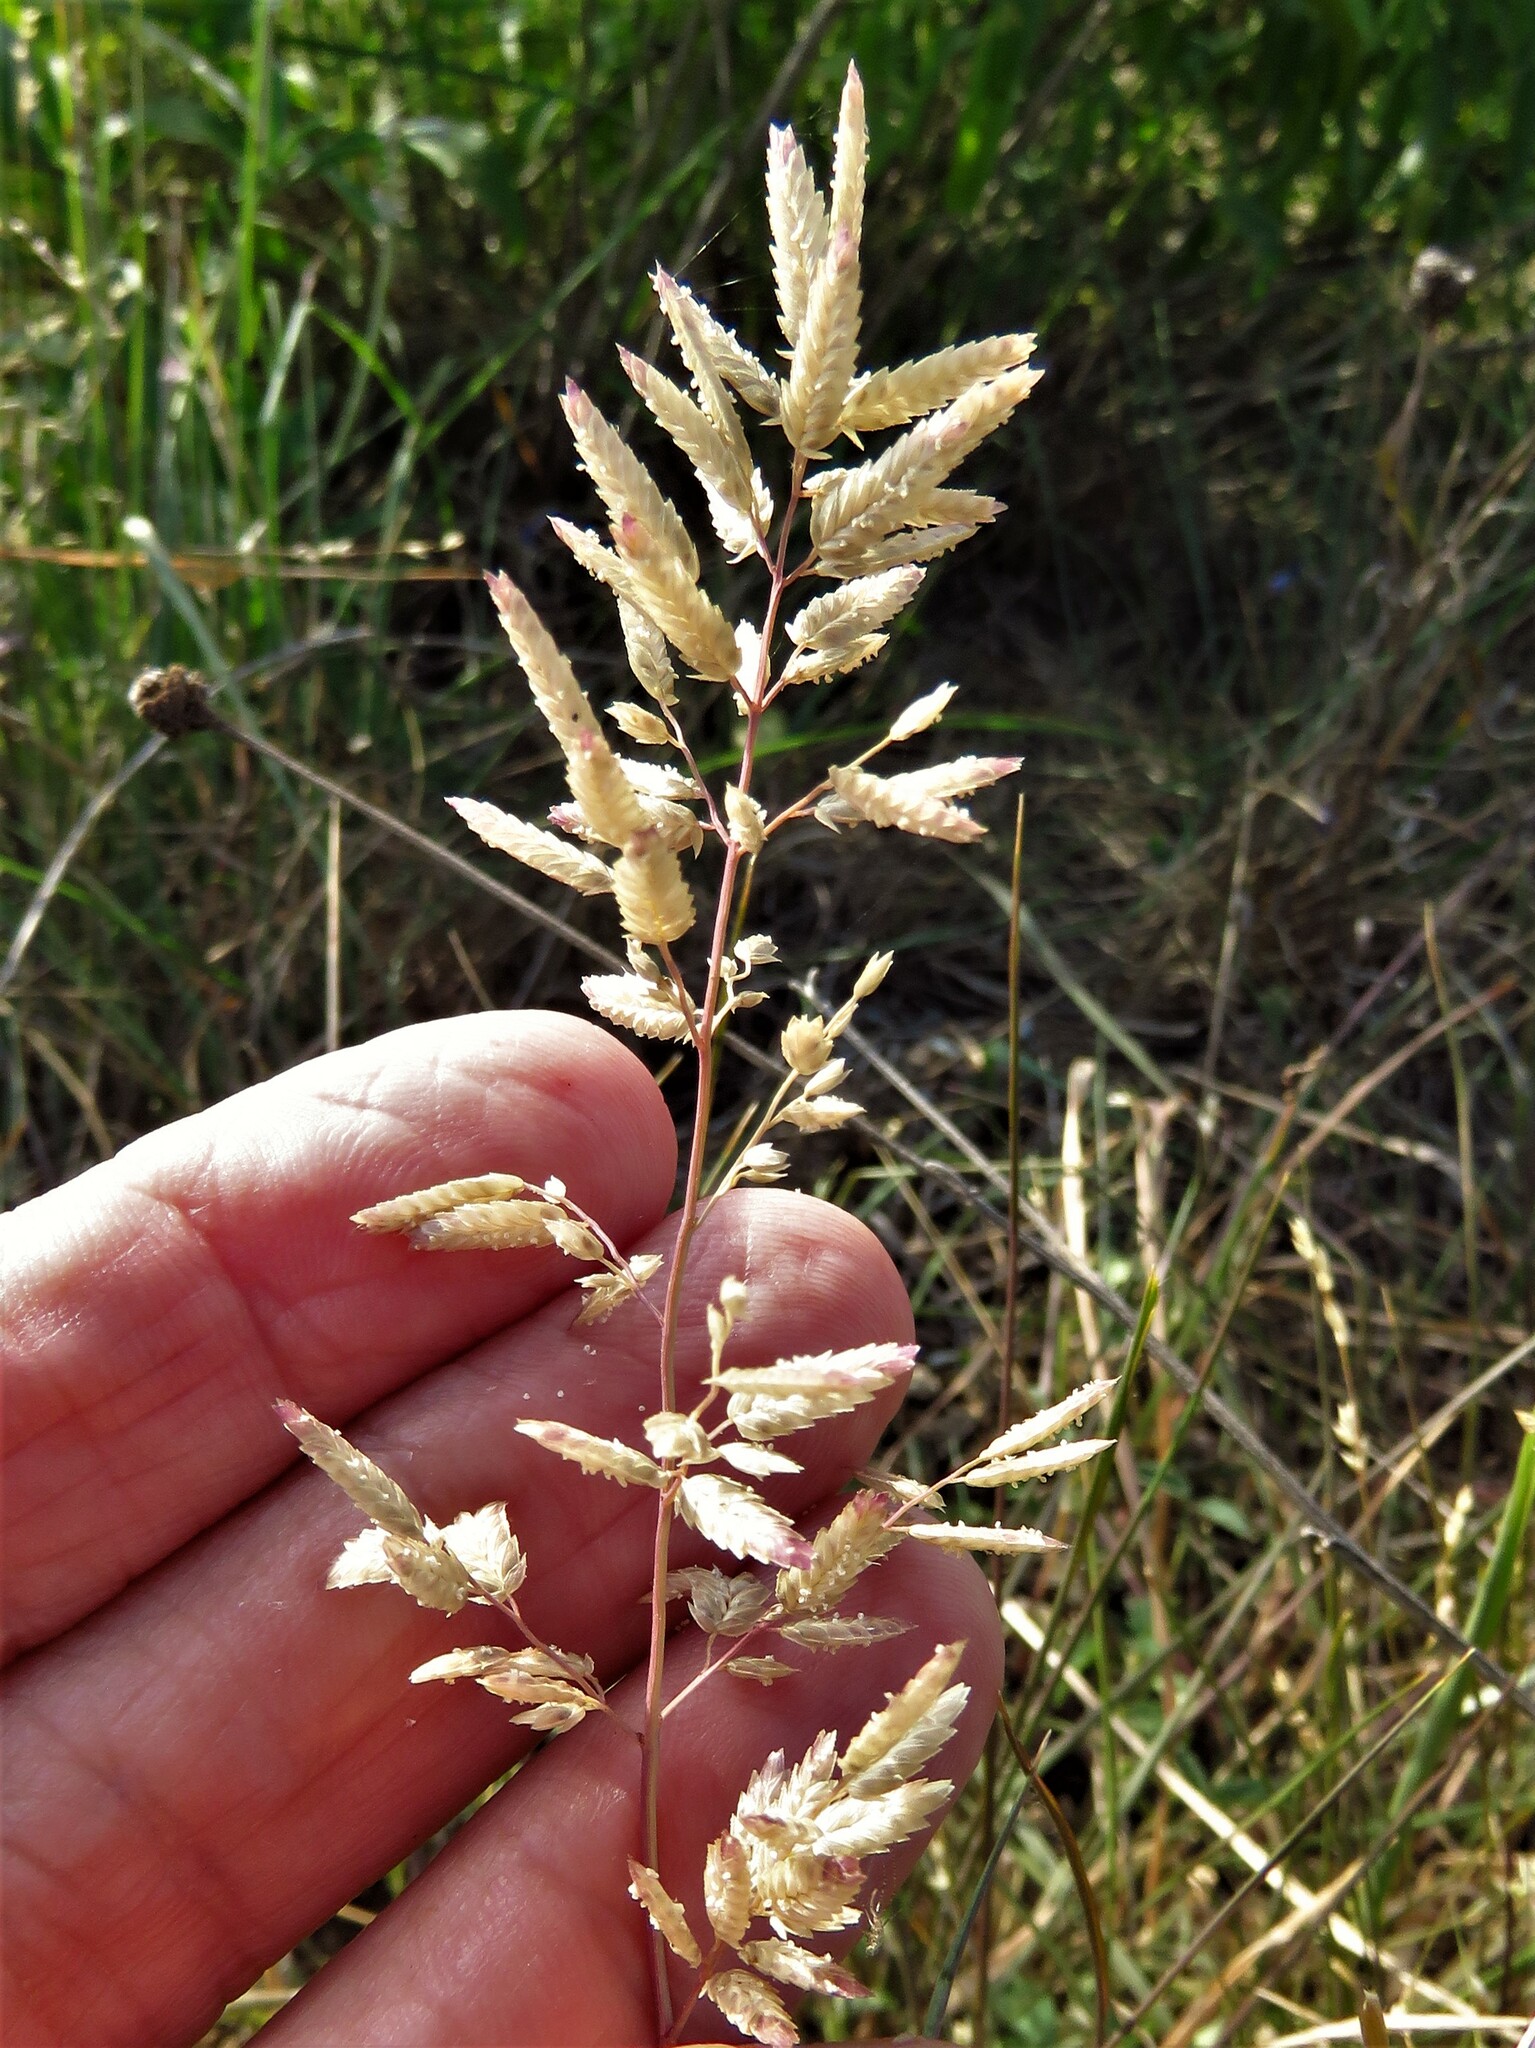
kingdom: Plantae
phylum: Tracheophyta
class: Liliopsida
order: Poales
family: Poaceae
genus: Eragrostis
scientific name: Eragrostis cilianensis
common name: Stinkgrass
